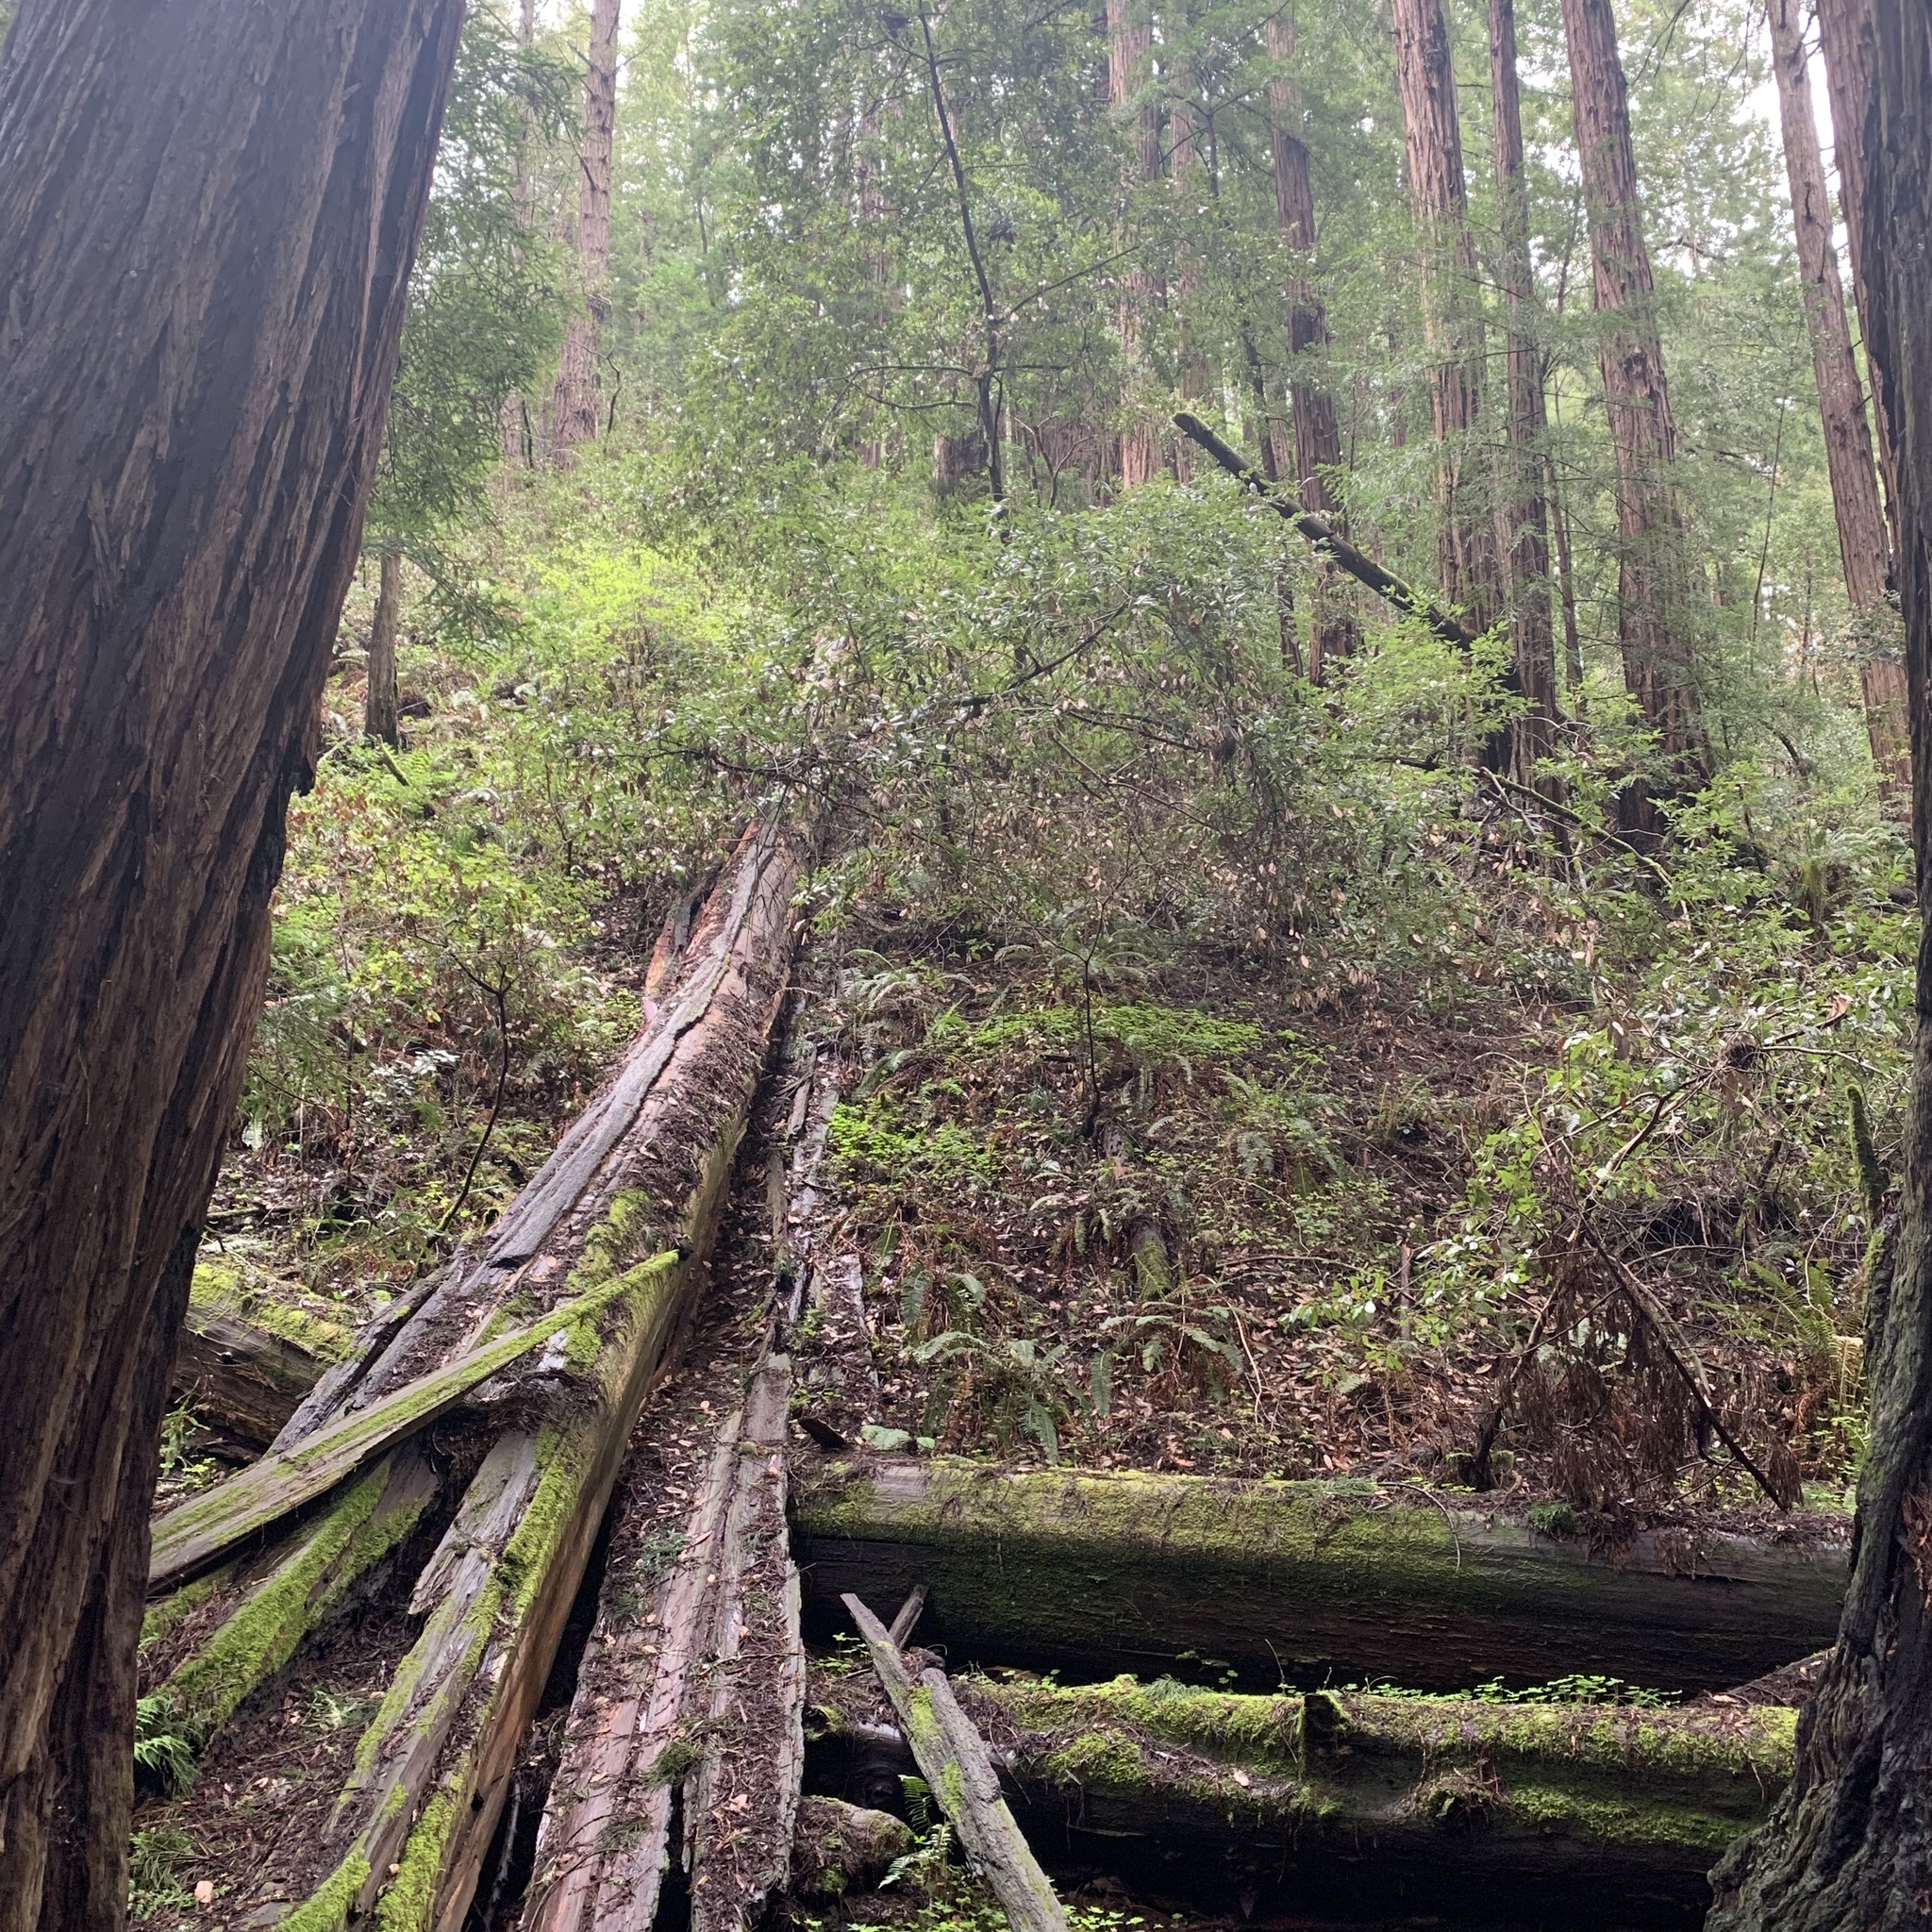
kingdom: Plantae
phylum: Tracheophyta
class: Pinopsida
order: Pinales
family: Cupressaceae
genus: Sequoia
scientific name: Sequoia sempervirens
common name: Coast redwood
